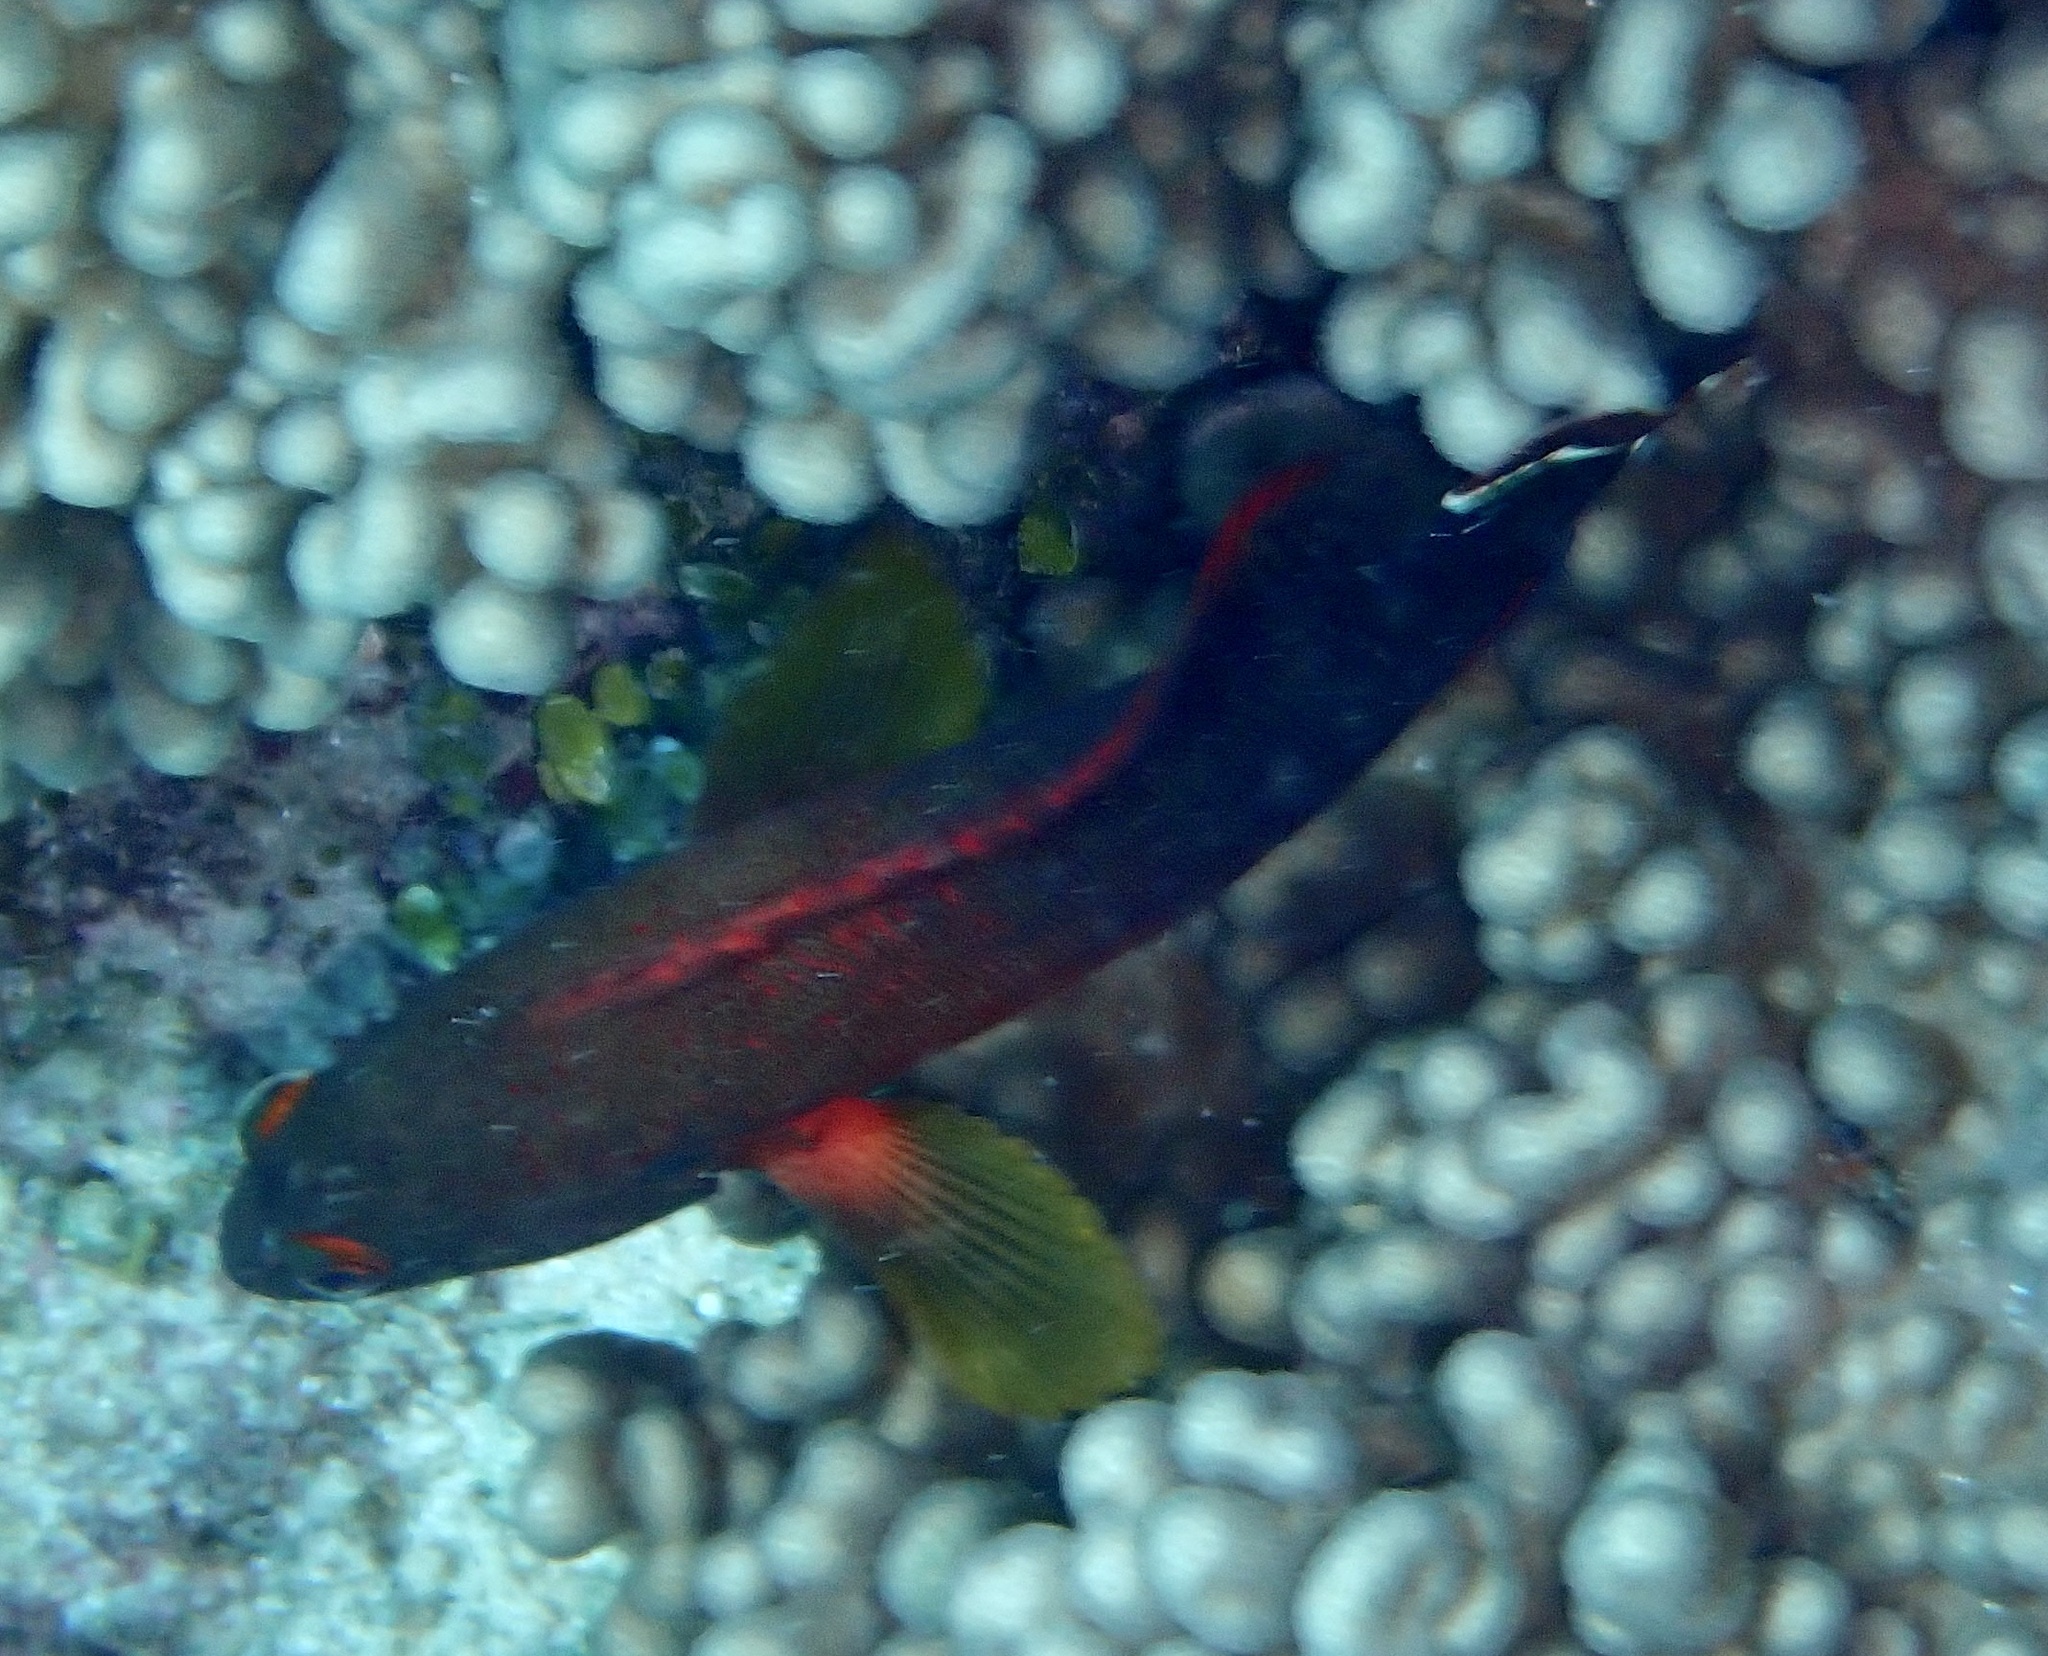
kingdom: Animalia
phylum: Chordata
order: Perciformes
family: Serranidae
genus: Cephalopholis
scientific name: Cephalopholis urodeta
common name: Darkfin hind
